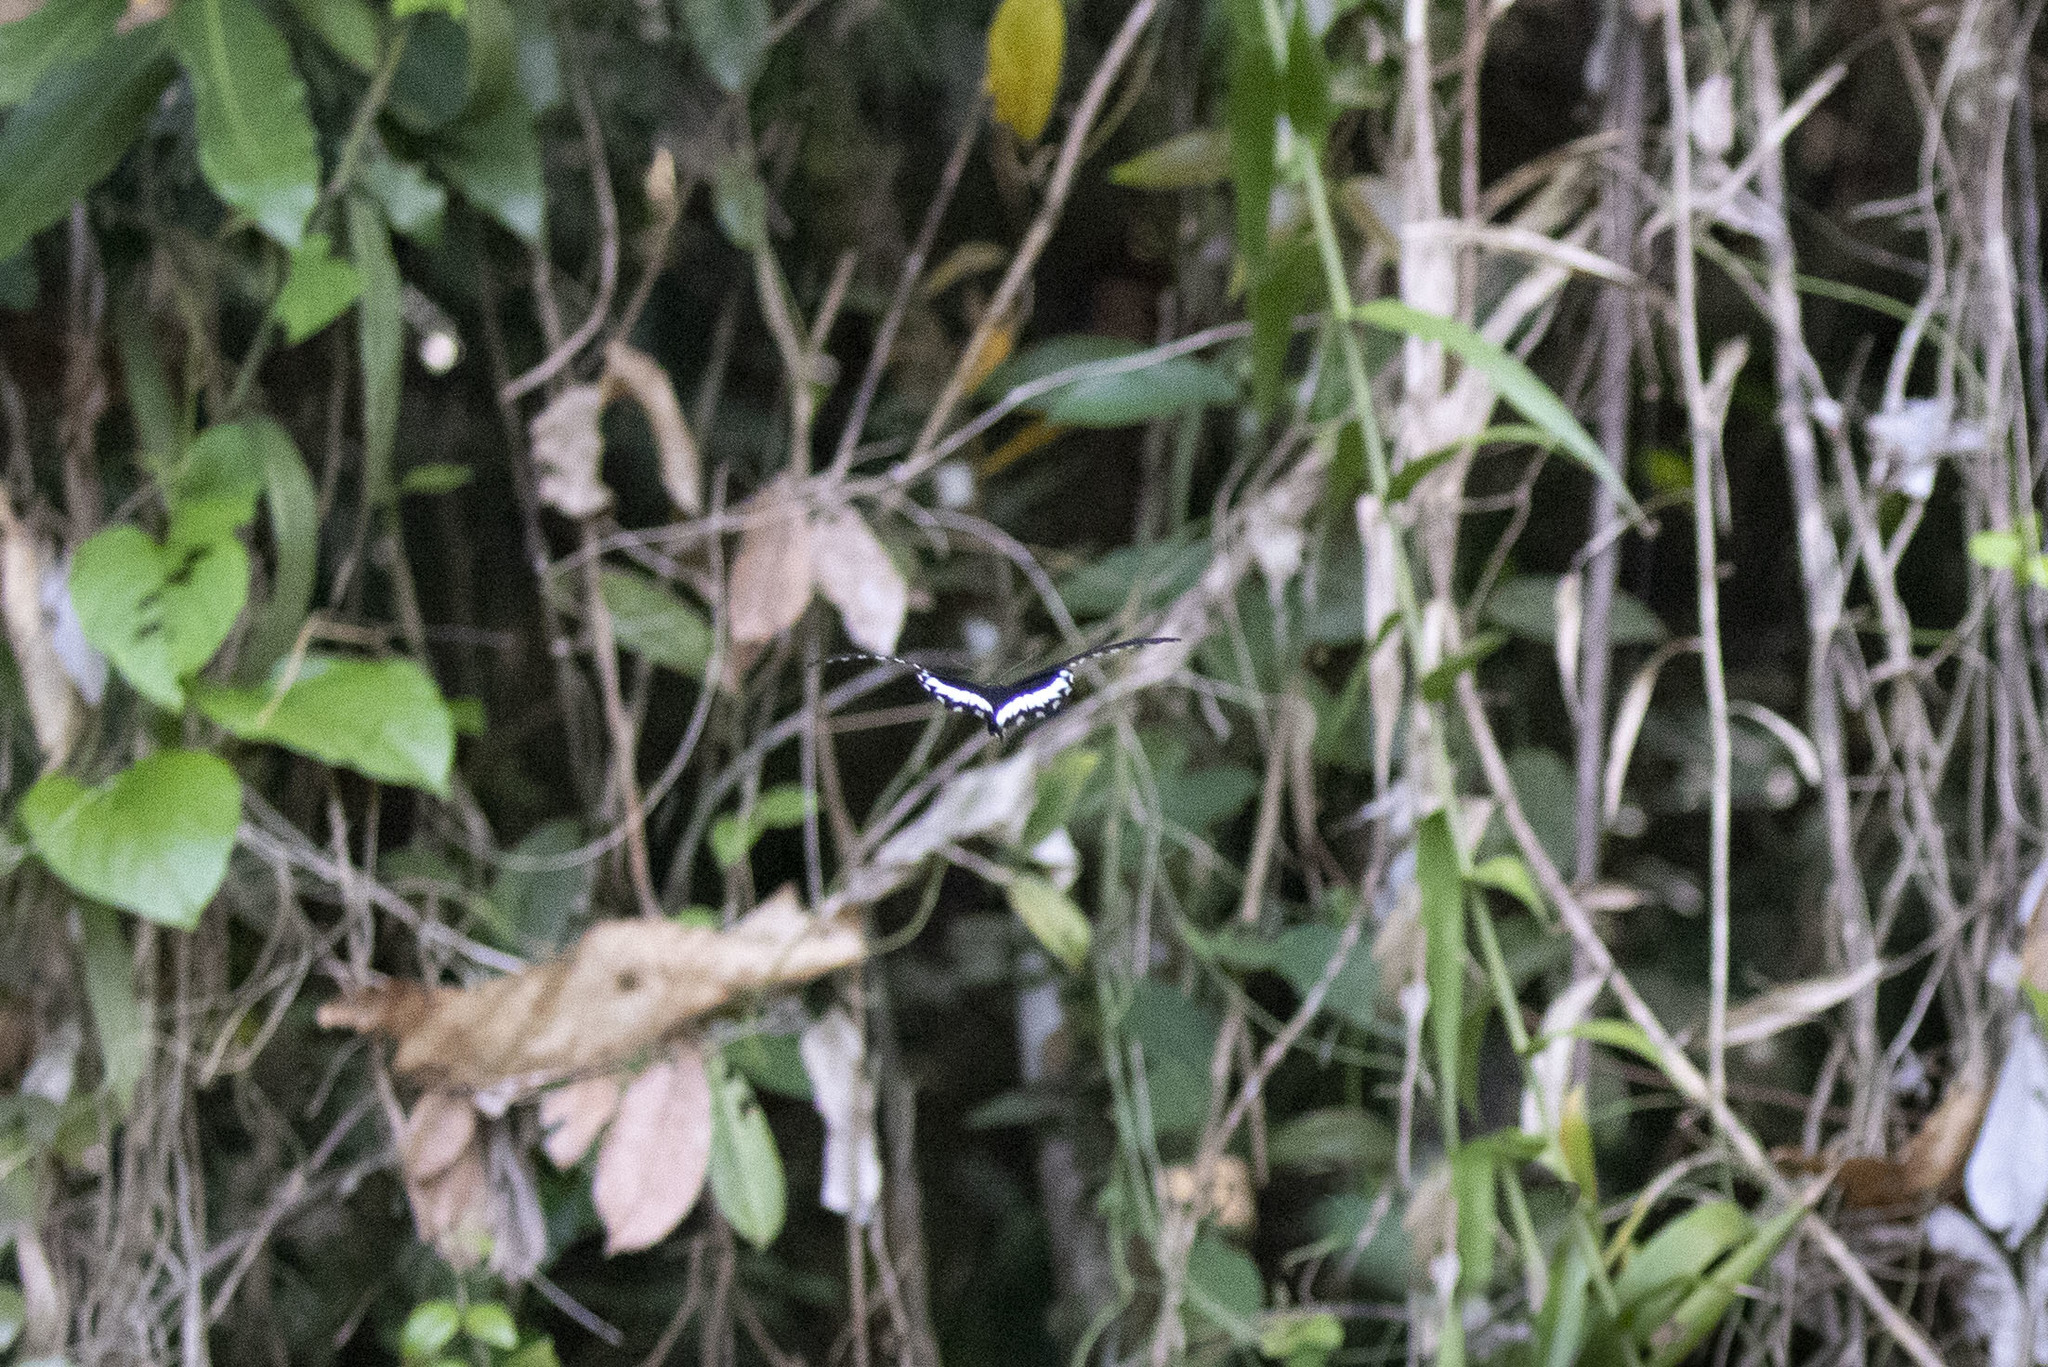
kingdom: Animalia
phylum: Arthropoda
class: Insecta
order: Lepidoptera
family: Papilionidae
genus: Papilio
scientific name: Papilio memnon
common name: Great mormon
